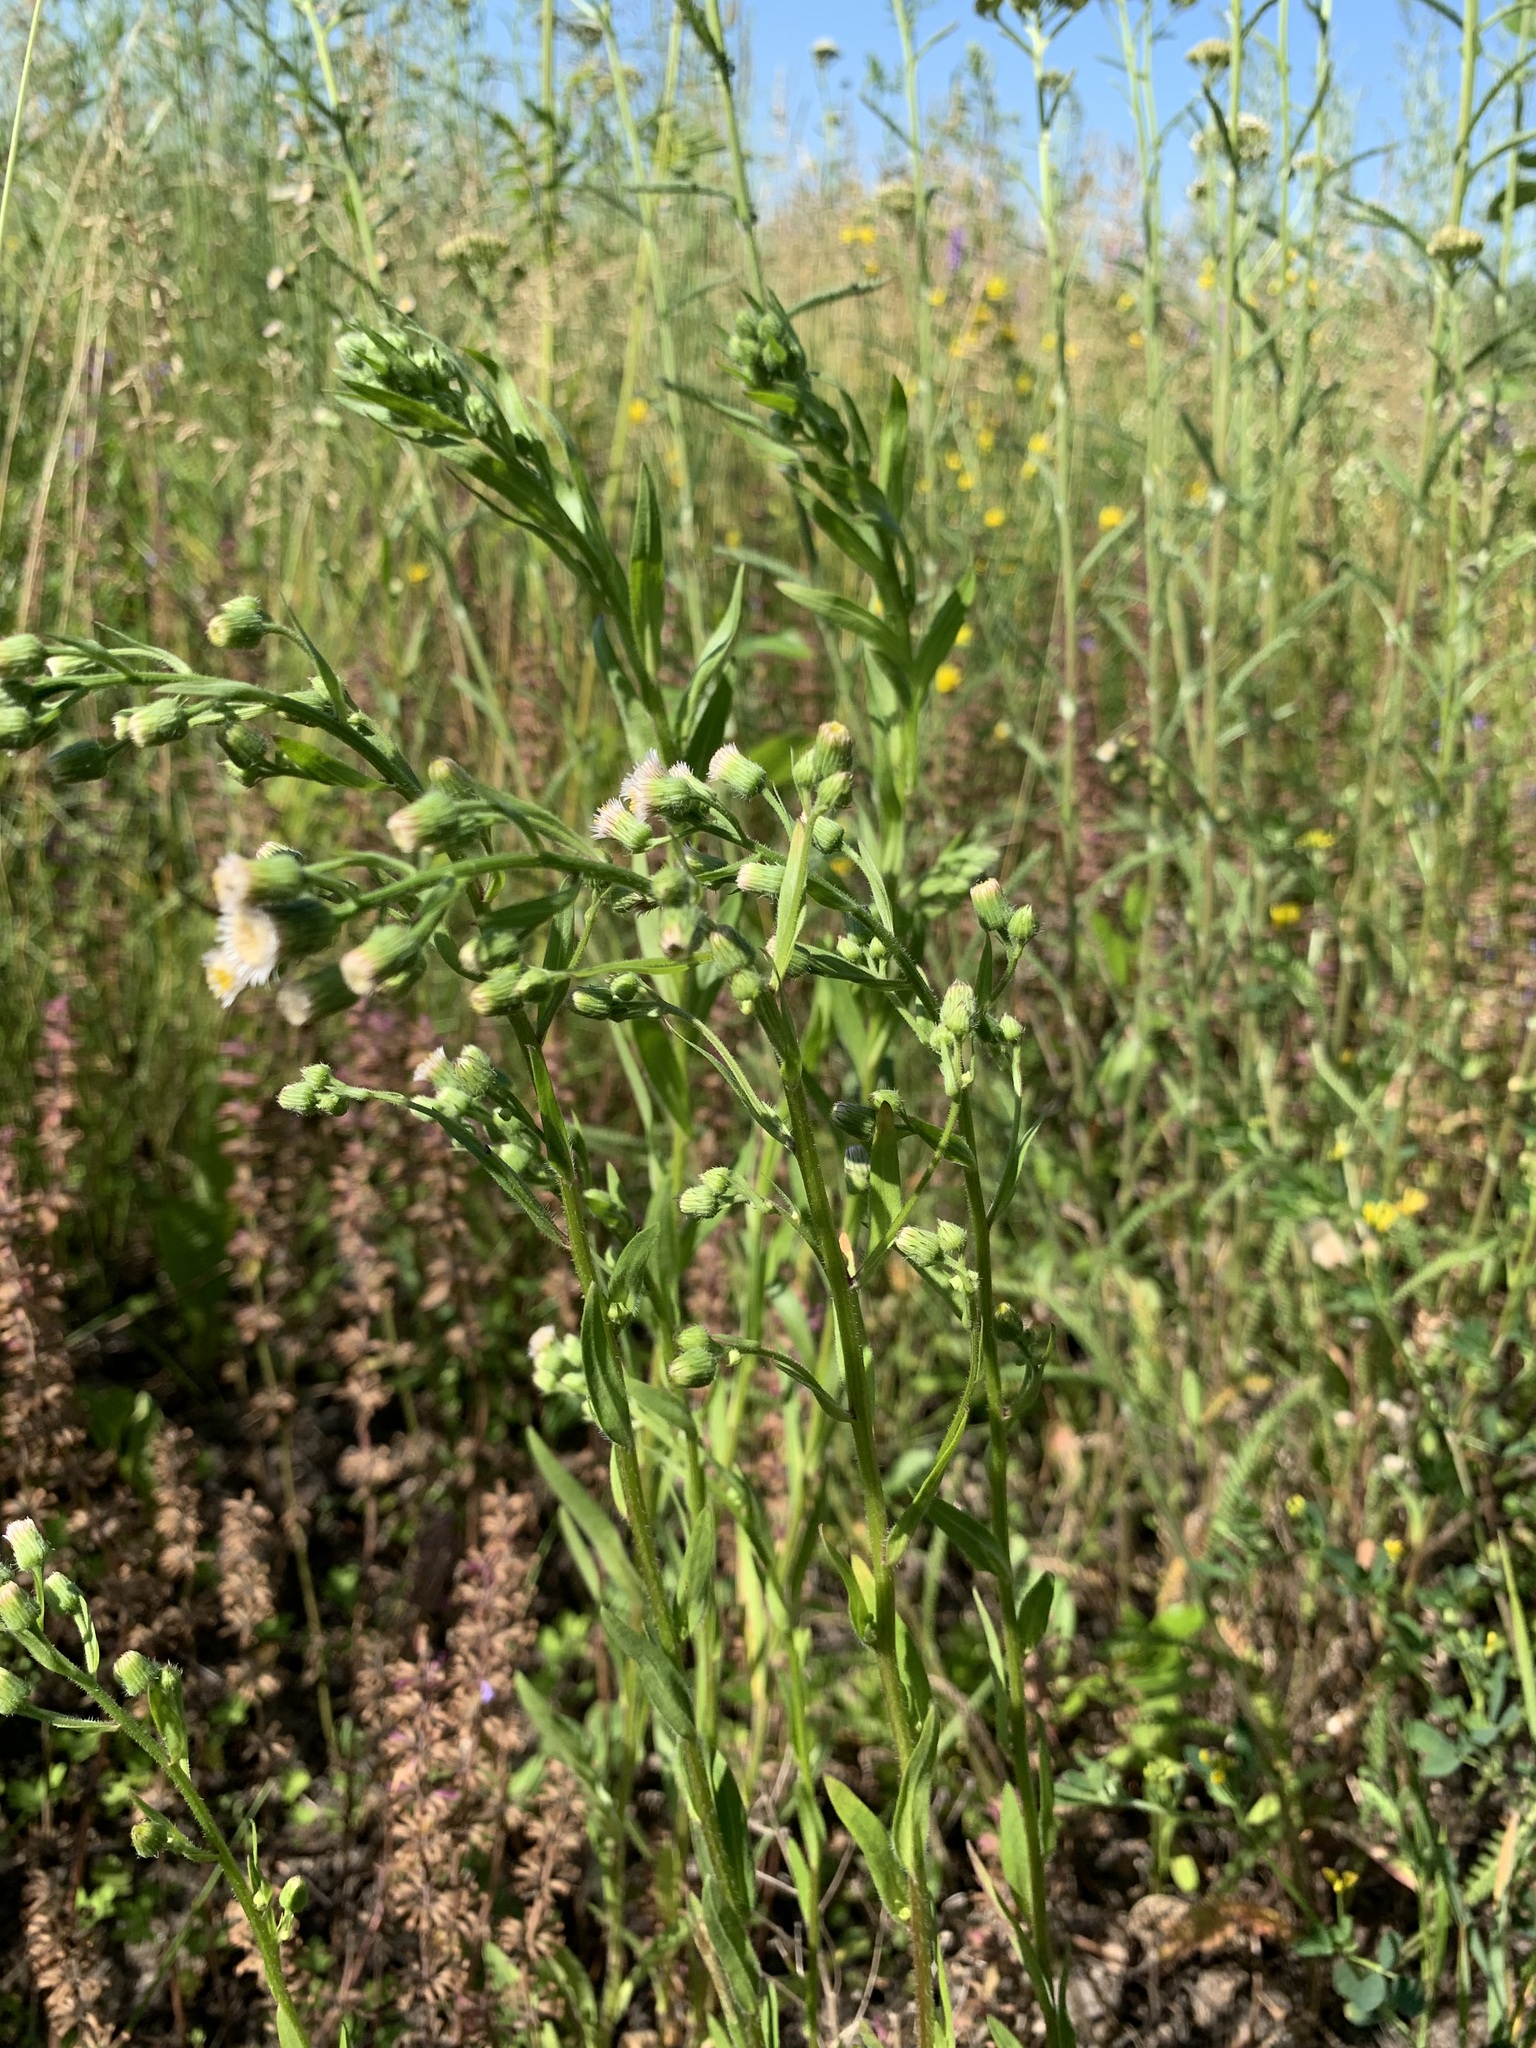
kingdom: Plantae
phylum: Tracheophyta
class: Magnoliopsida
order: Asterales
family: Asteraceae
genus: Erigeron
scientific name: Erigeron acris
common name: Blue fleabane
